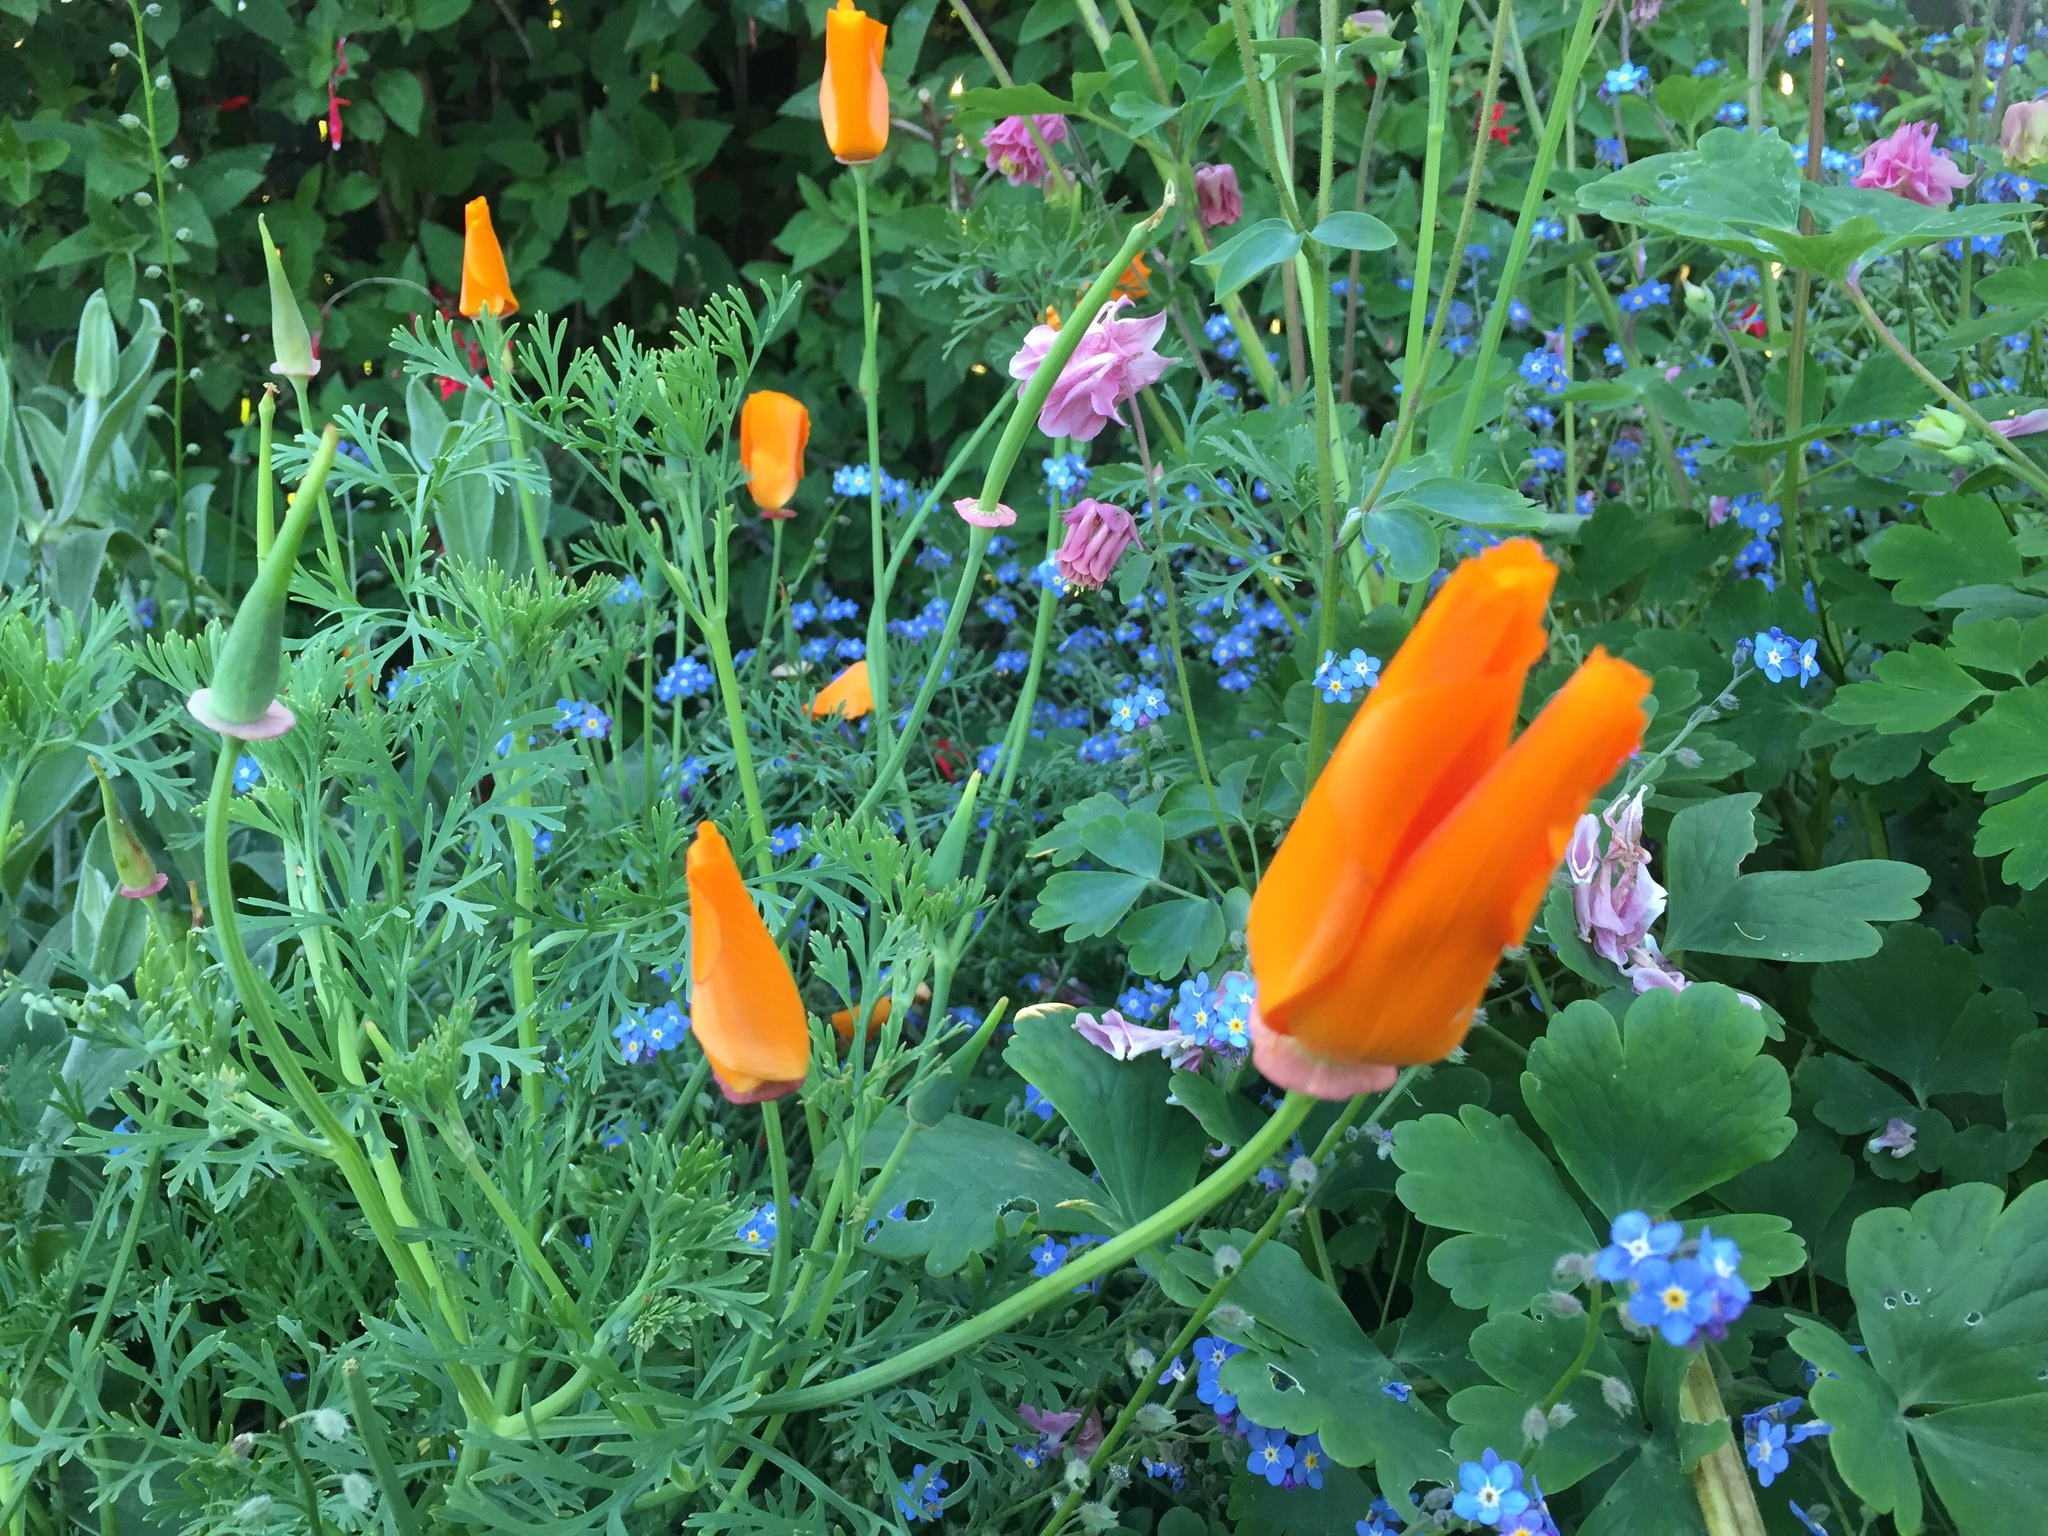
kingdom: Plantae
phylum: Tracheophyta
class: Magnoliopsida
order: Ranunculales
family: Papaveraceae
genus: Eschscholzia
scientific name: Eschscholzia californica
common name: California poppy
